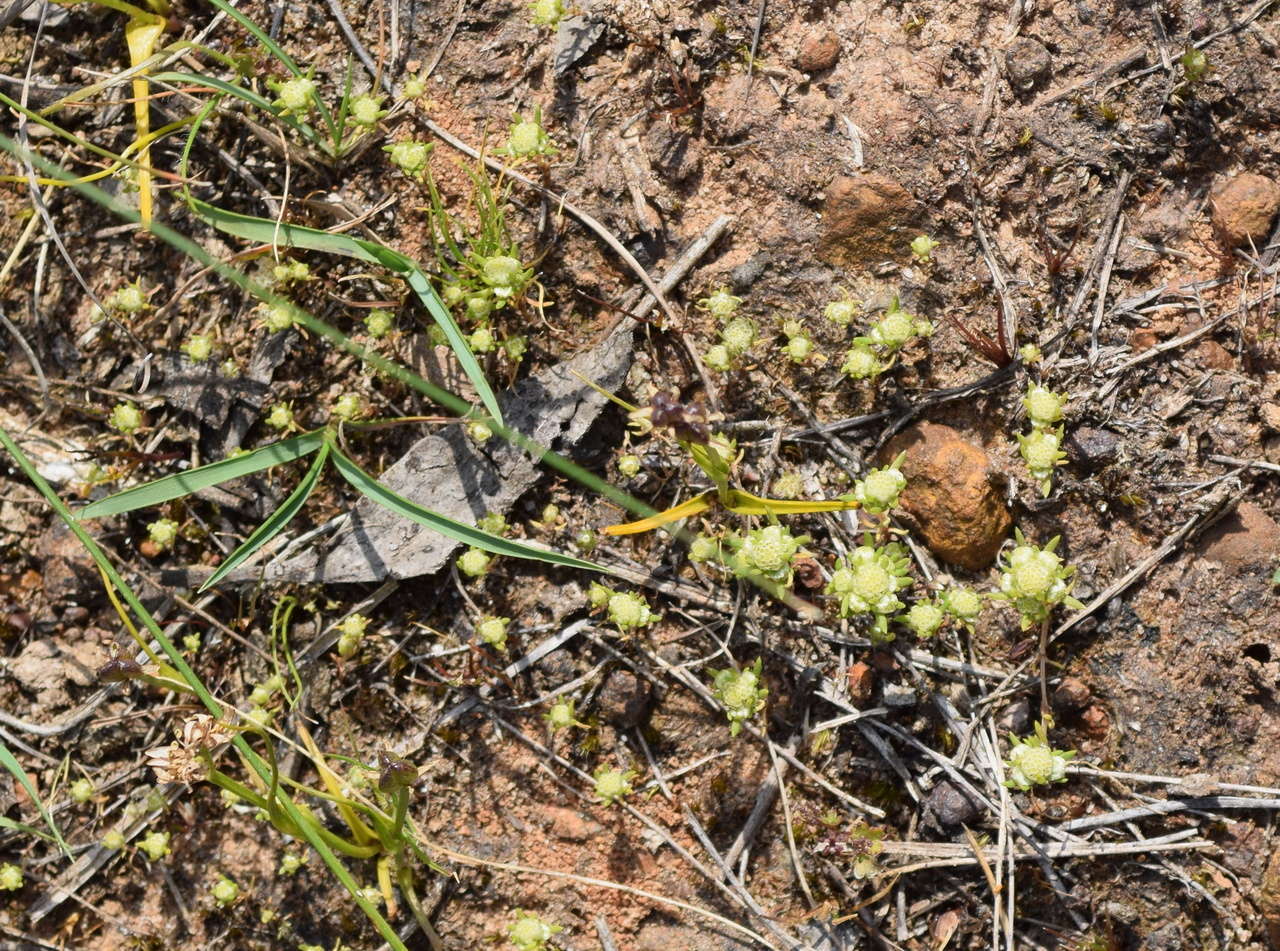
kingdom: Plantae
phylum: Tracheophyta
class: Magnoliopsida
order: Asterales
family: Asteraceae
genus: Siloxerus
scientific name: Siloxerus multiflorus
